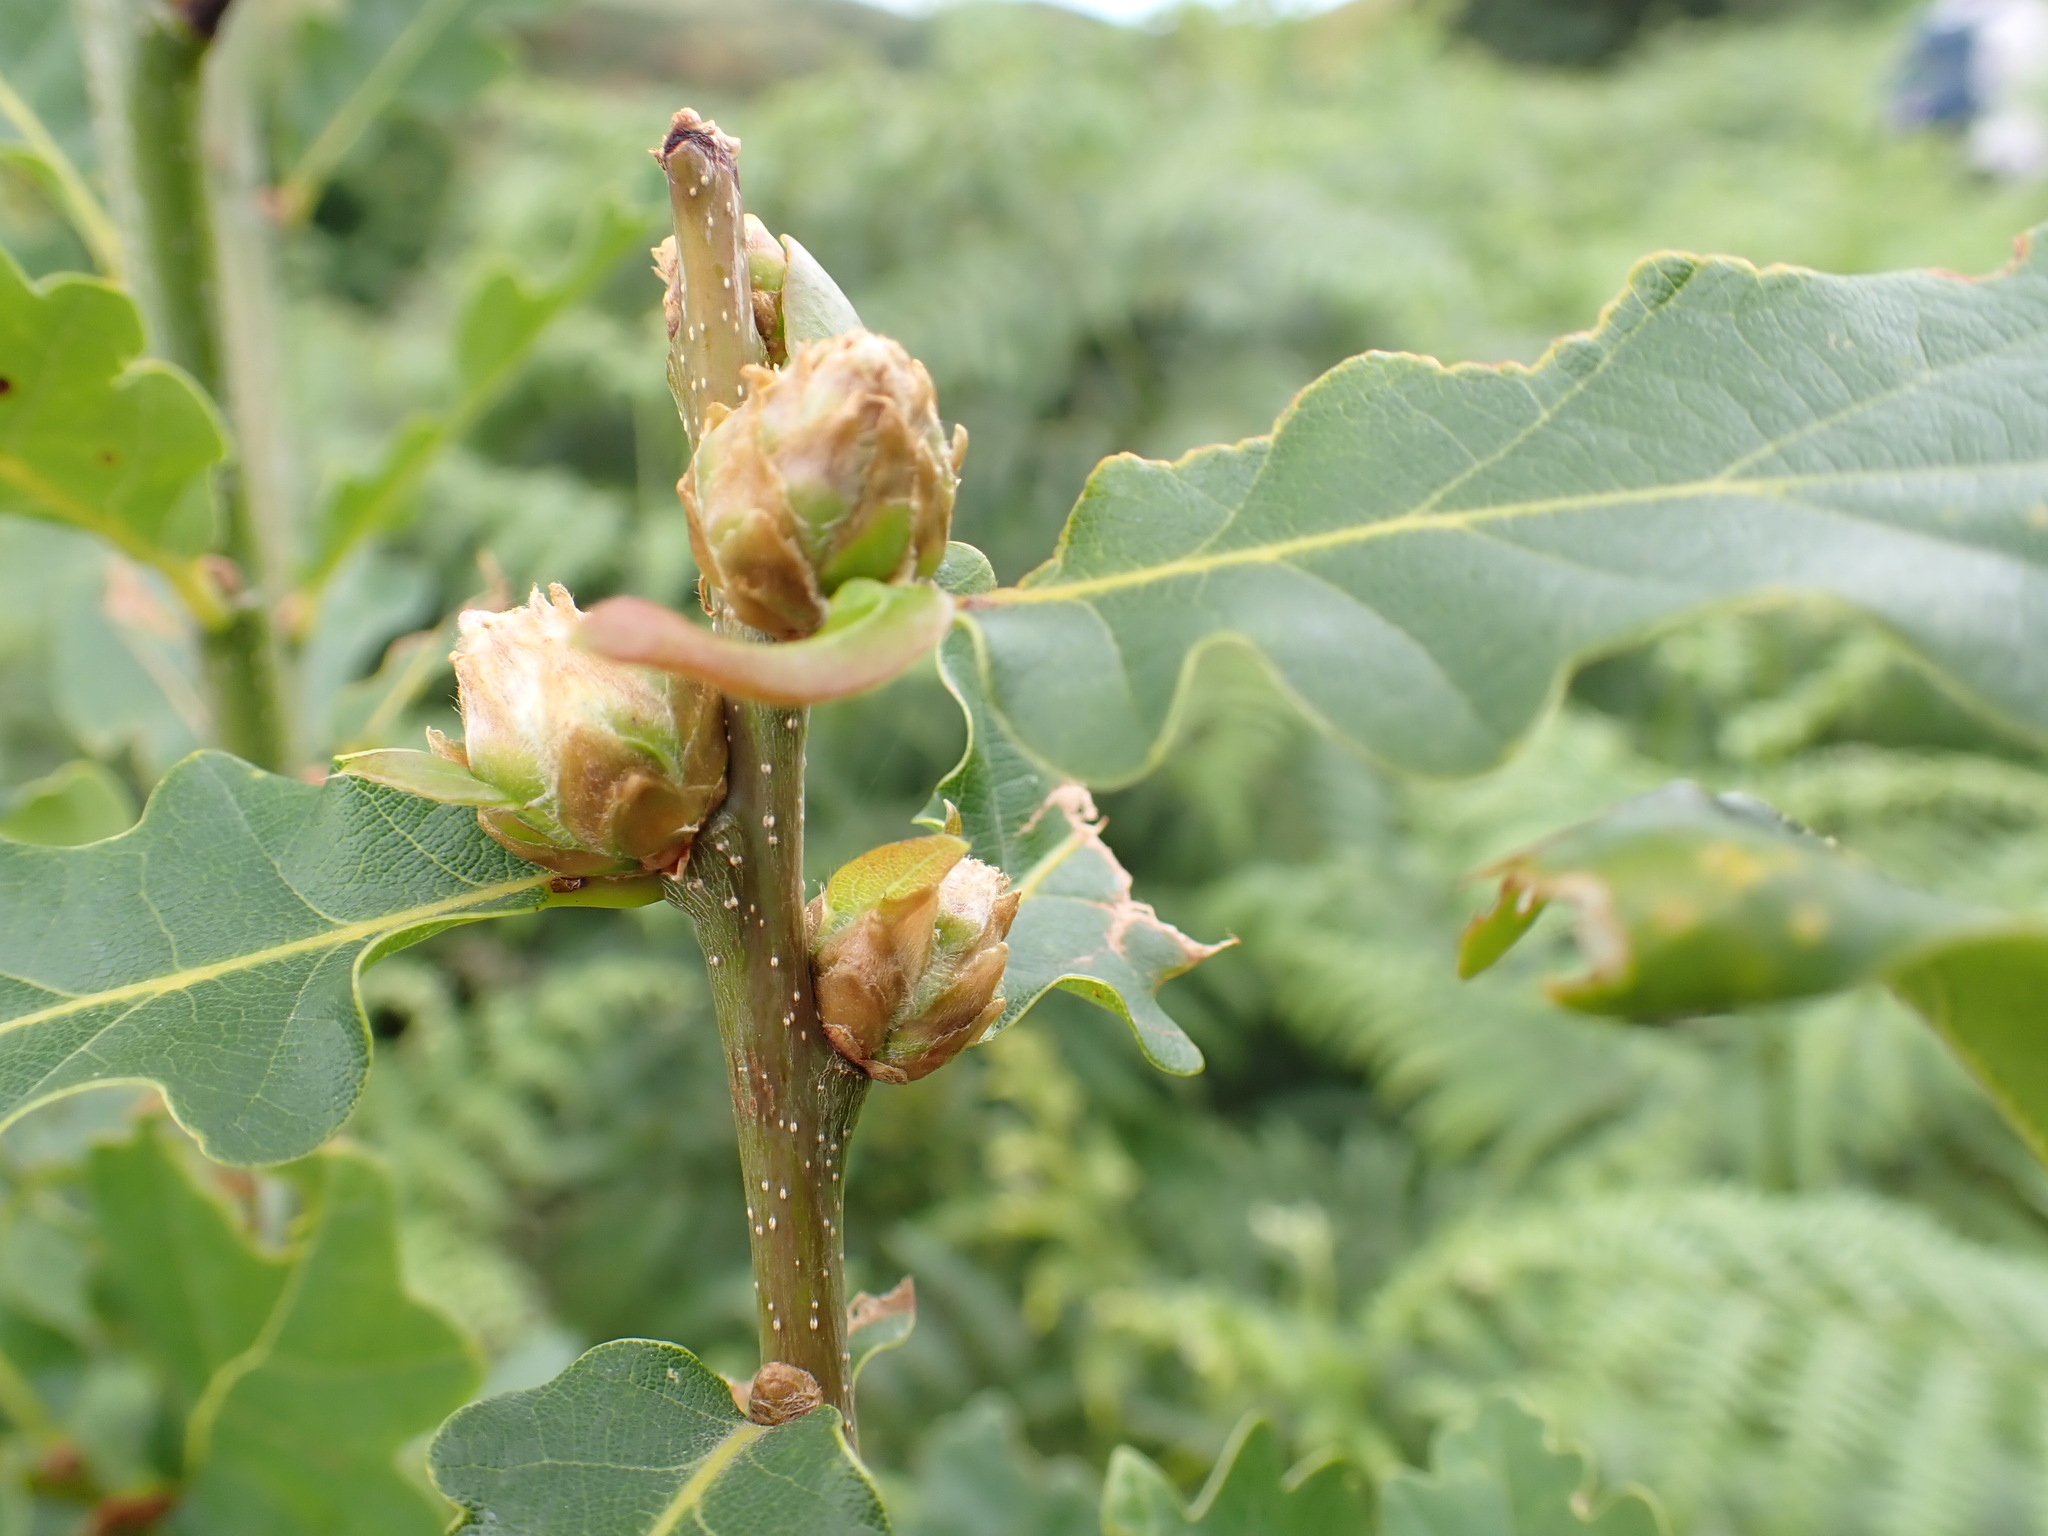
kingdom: Animalia
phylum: Arthropoda
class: Insecta
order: Hymenoptera
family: Cynipidae
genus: Andricus
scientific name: Andricus foecundatrix
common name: Artichoke gall
